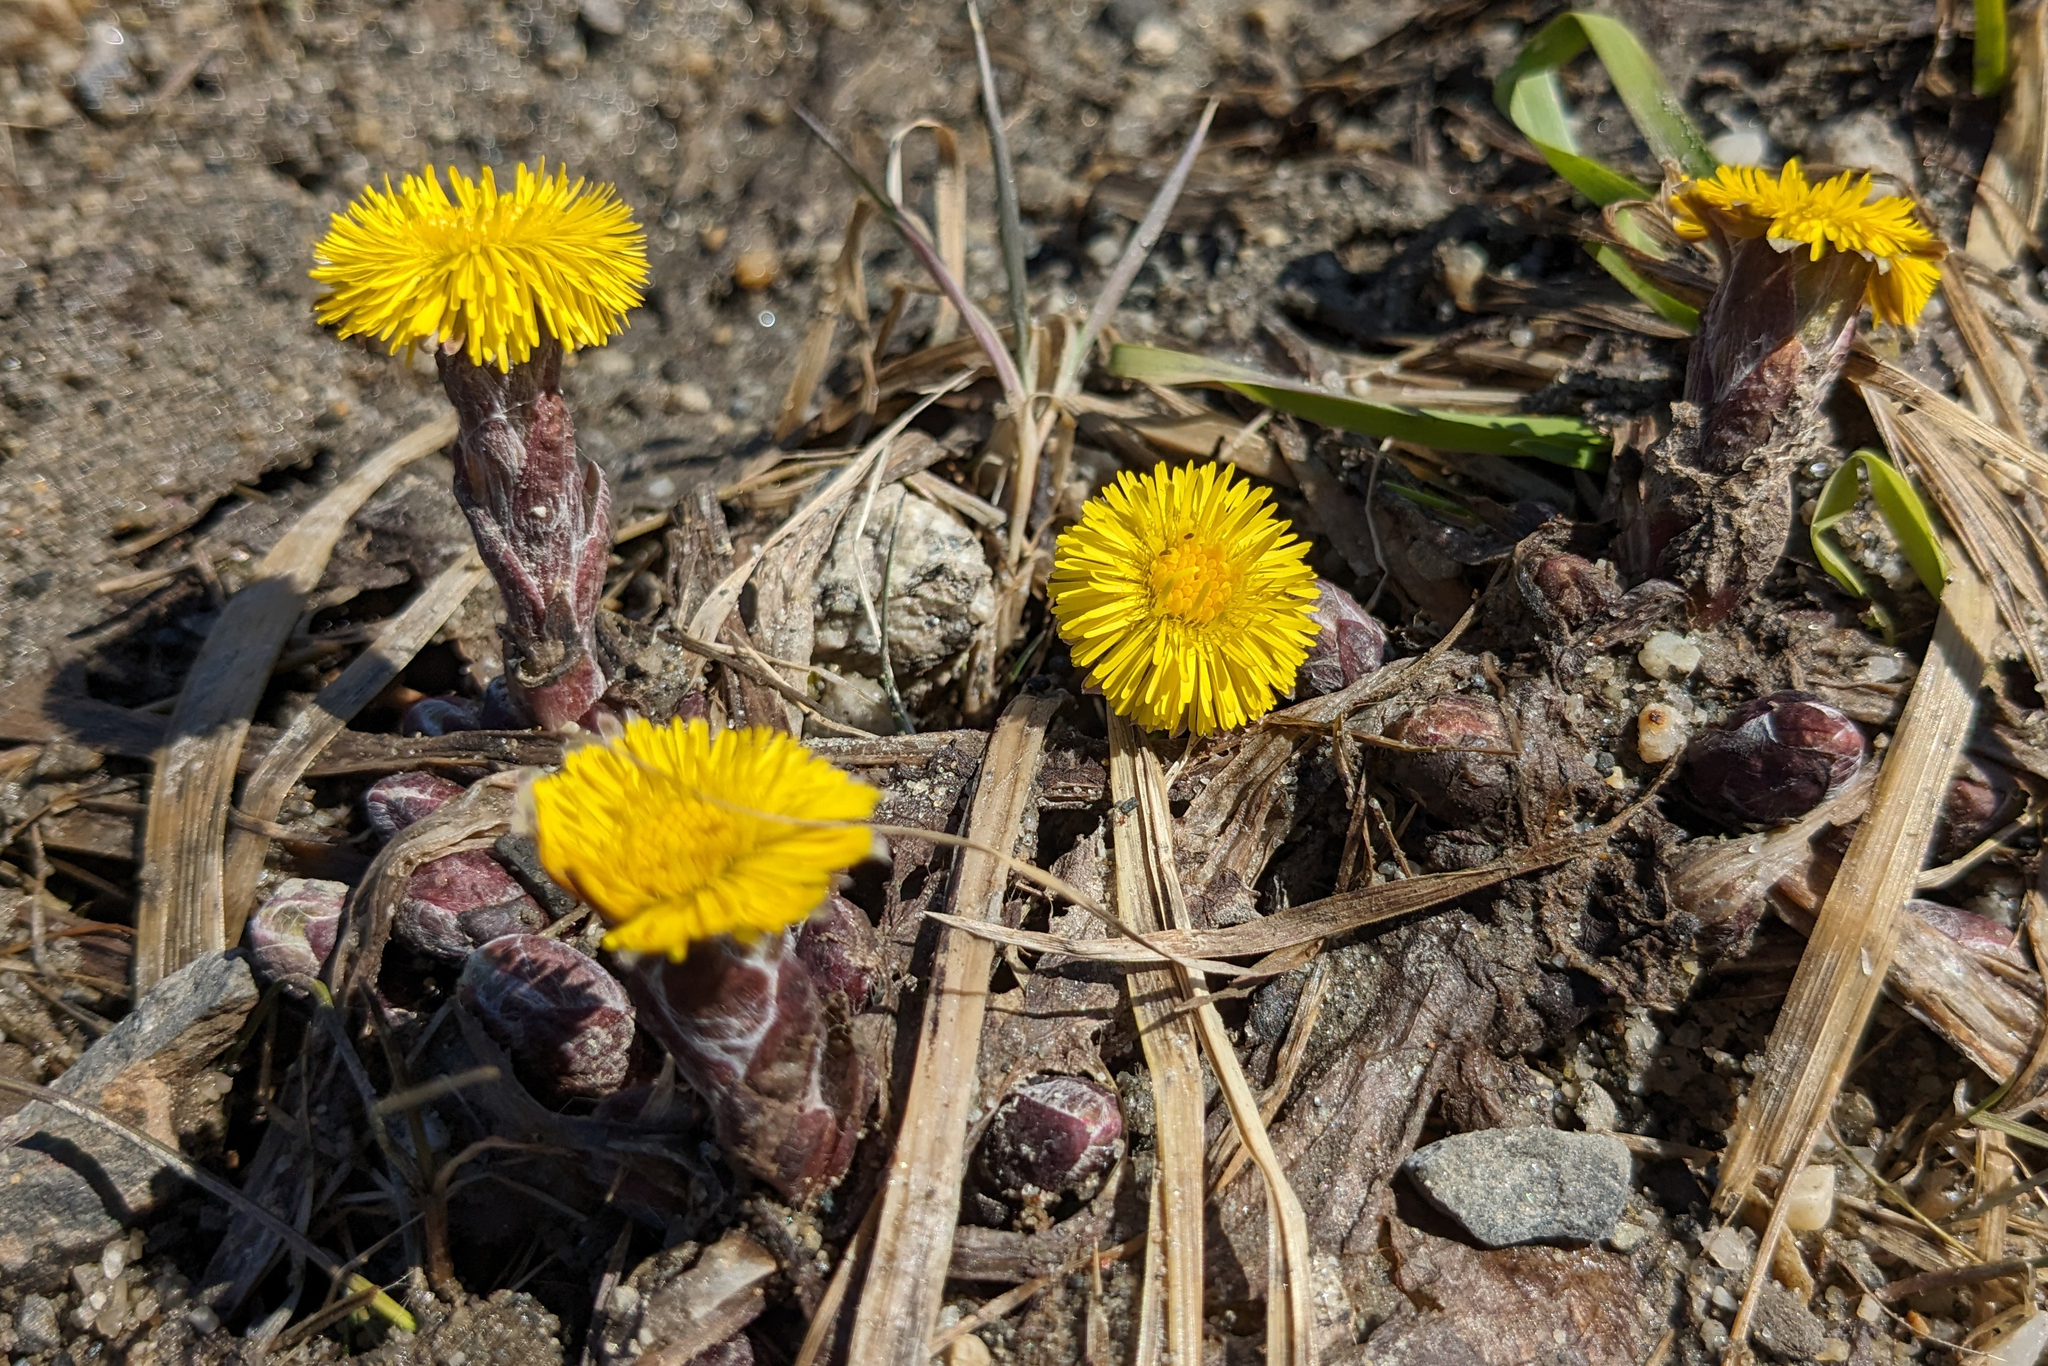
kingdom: Plantae
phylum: Tracheophyta
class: Magnoliopsida
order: Asterales
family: Asteraceae
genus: Tussilago
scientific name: Tussilago farfara
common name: Coltsfoot
